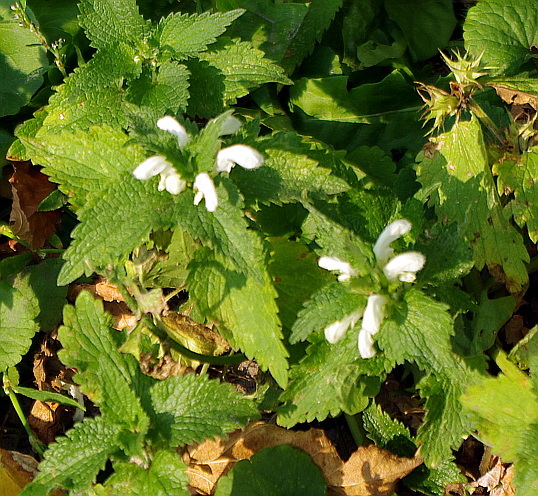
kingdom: Plantae
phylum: Tracheophyta
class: Magnoliopsida
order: Lamiales
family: Lamiaceae
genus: Lamium
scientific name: Lamium album
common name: White dead-nettle
